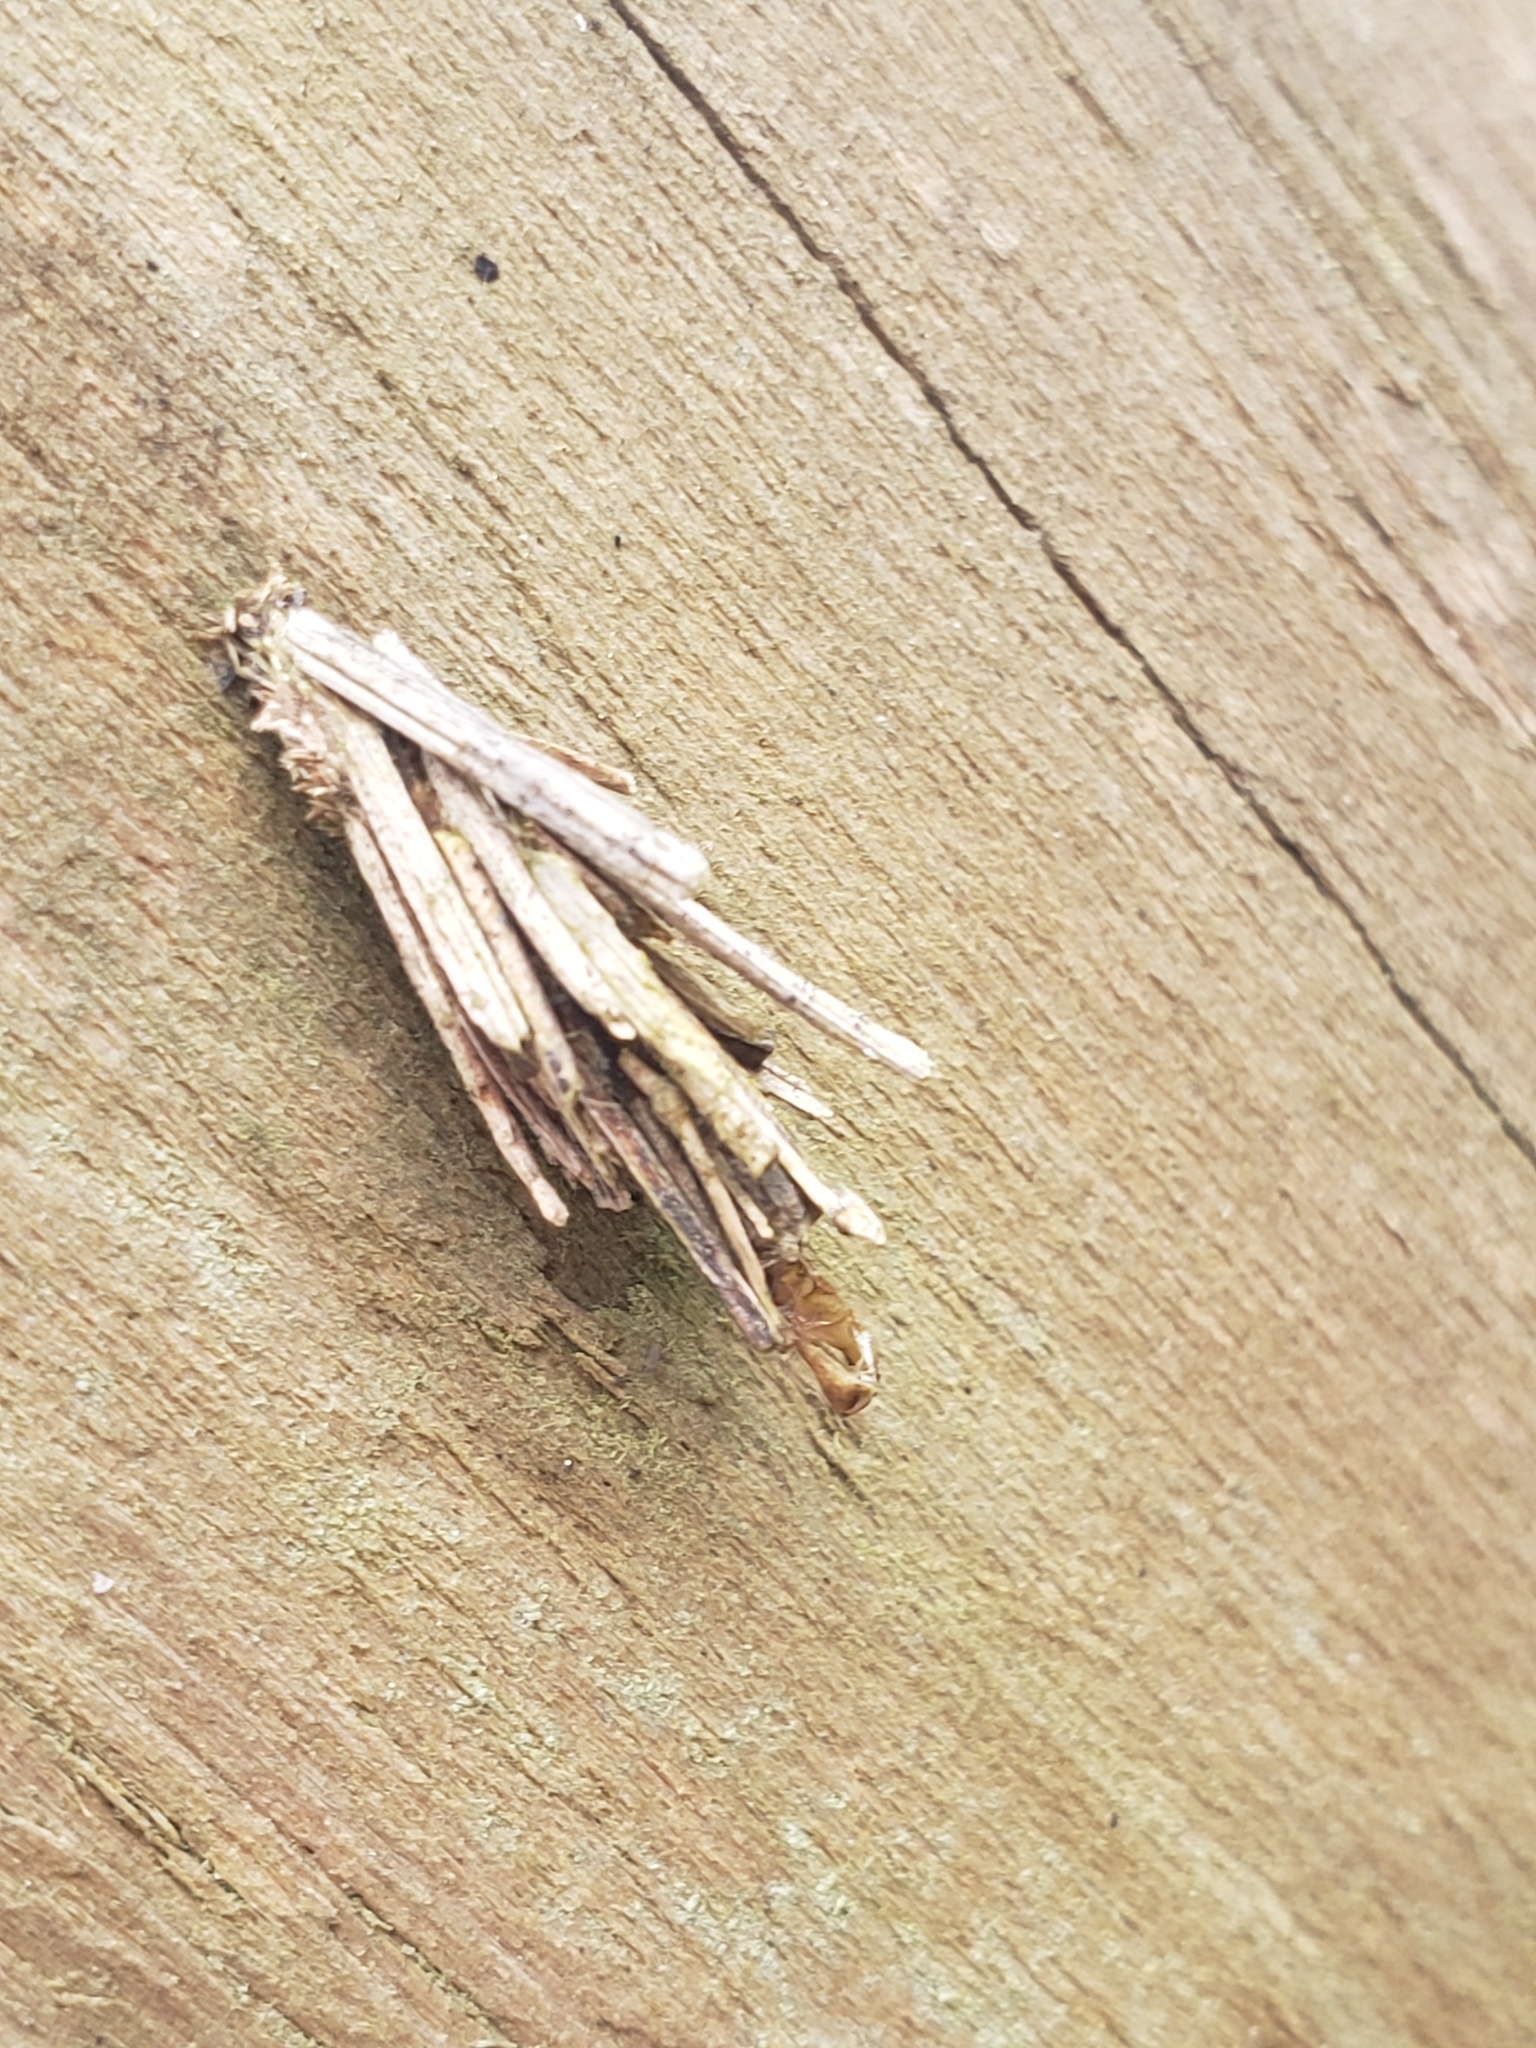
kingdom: Animalia
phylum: Arthropoda
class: Insecta
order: Lepidoptera
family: Psychidae
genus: Psyche
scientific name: Psyche casta
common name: Common sweep
